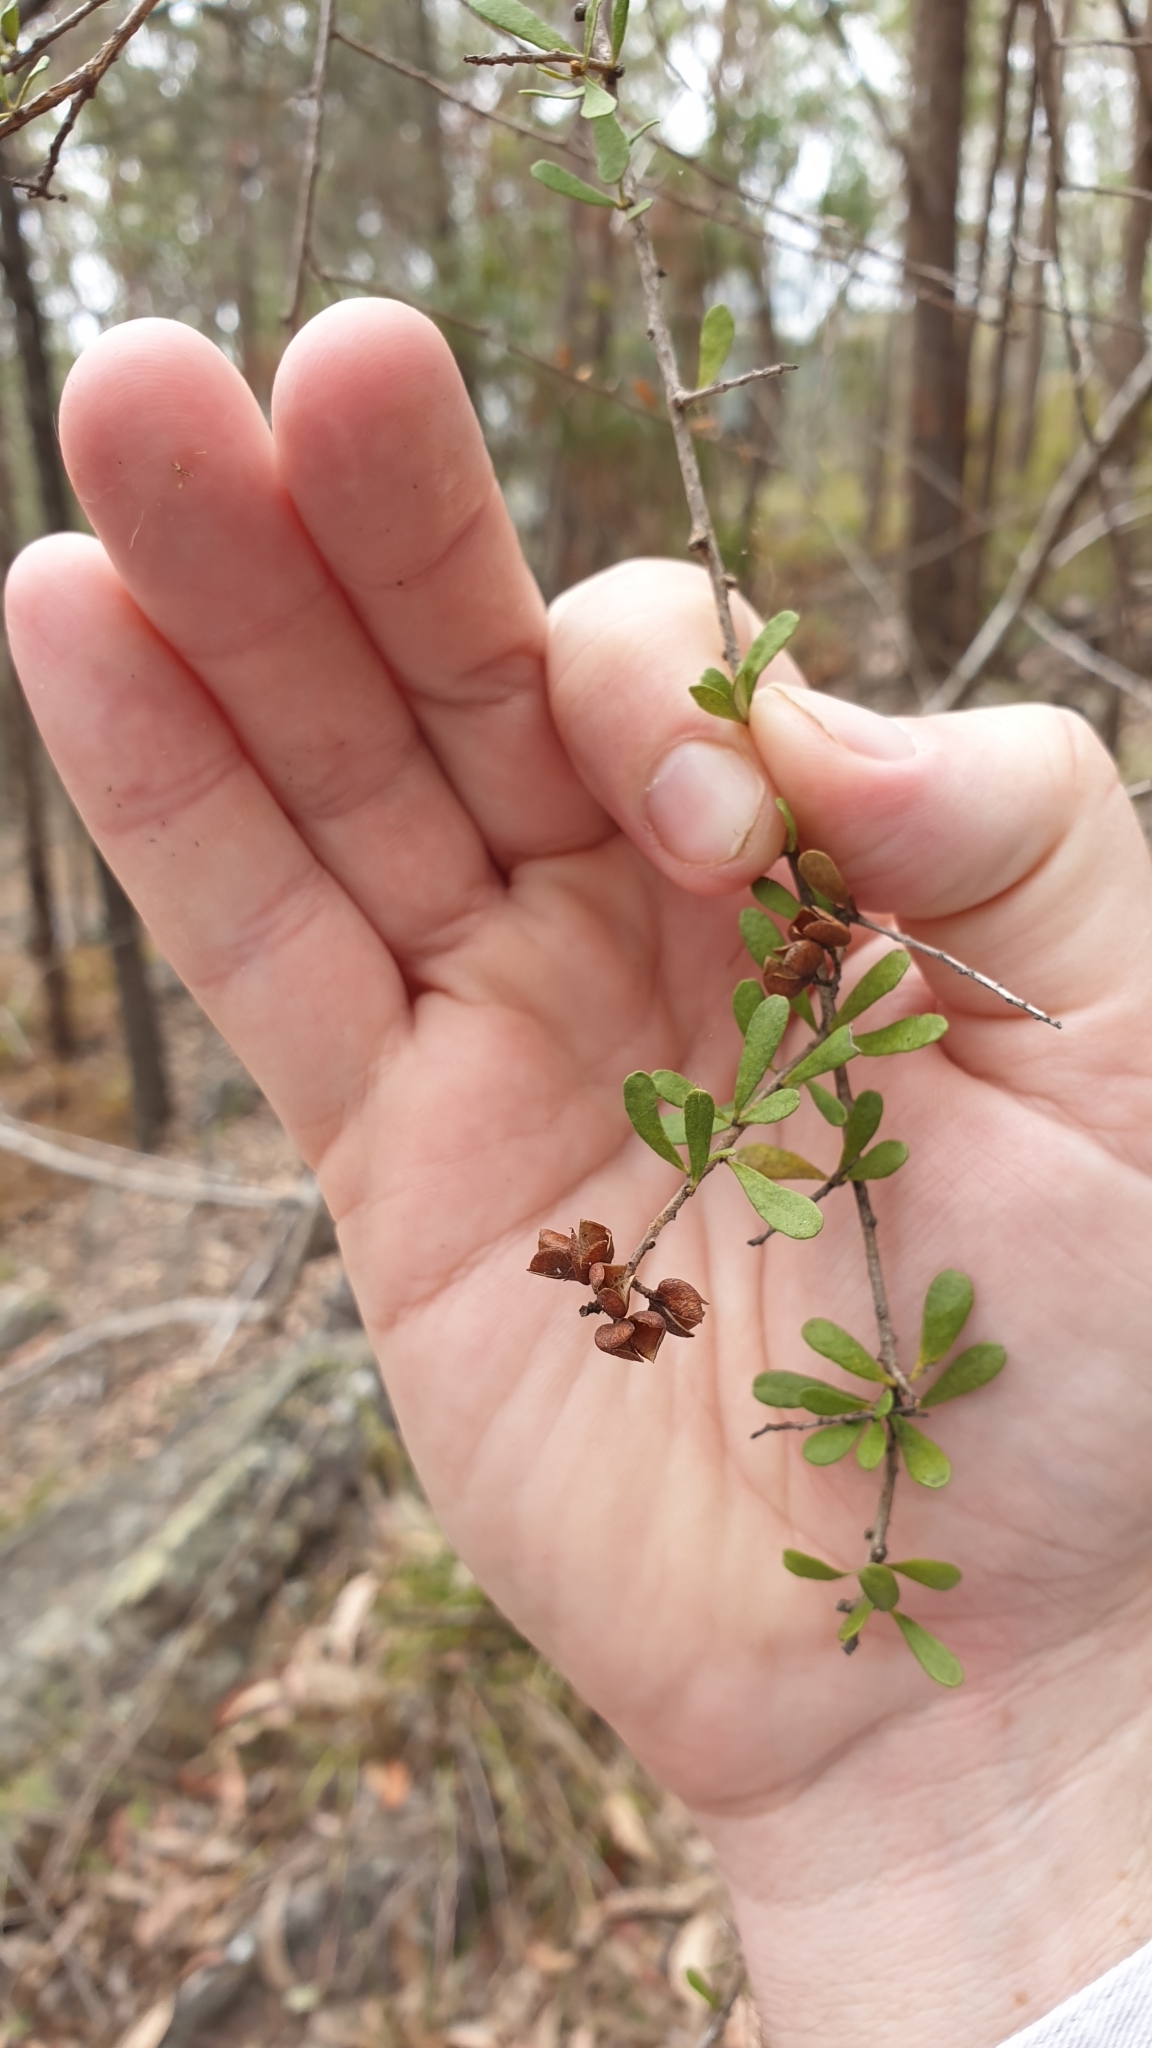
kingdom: Plantae
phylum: Tracheophyta
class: Magnoliopsida
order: Apiales
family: Pittosporaceae
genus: Bursaria
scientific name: Bursaria spinosa
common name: Australian blackthorn
